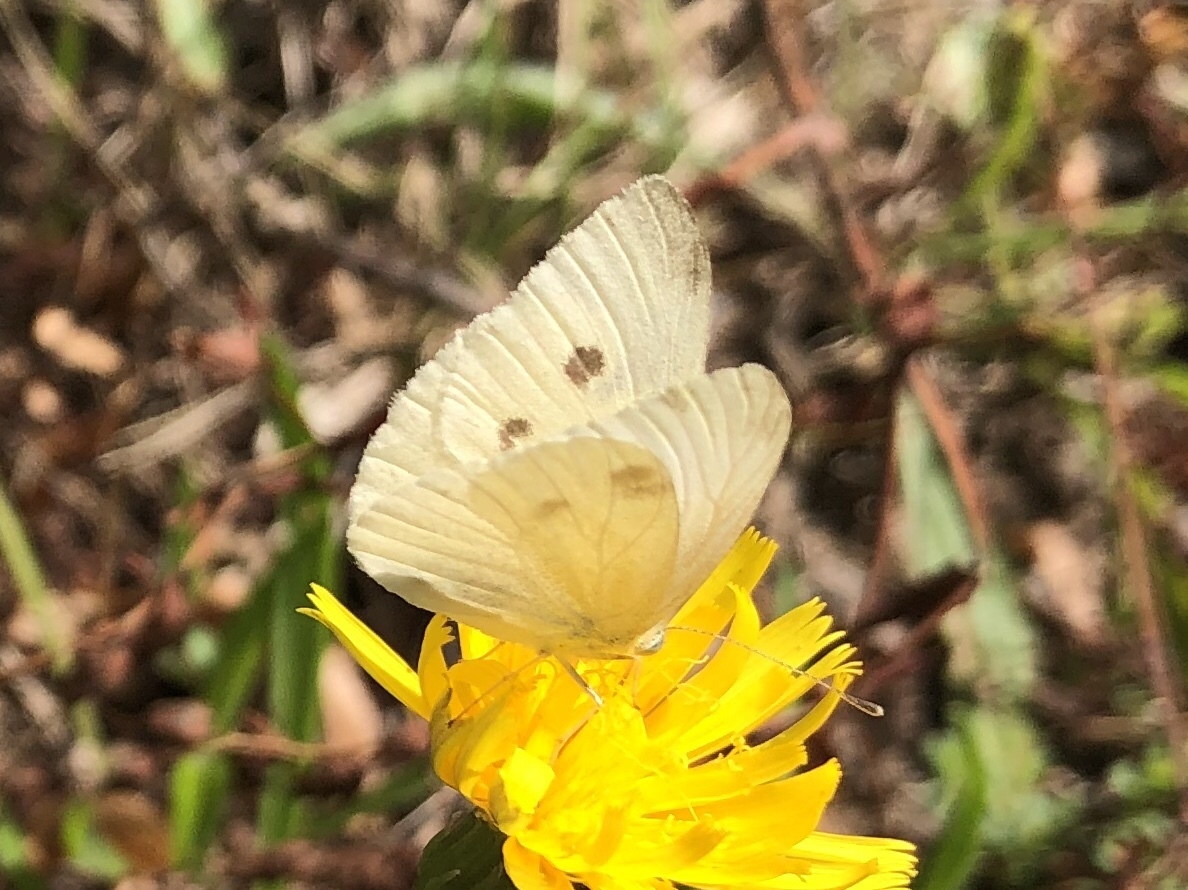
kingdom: Animalia
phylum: Arthropoda
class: Insecta
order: Lepidoptera
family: Pieridae
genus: Pieris
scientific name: Pieris rapae
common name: Small white
